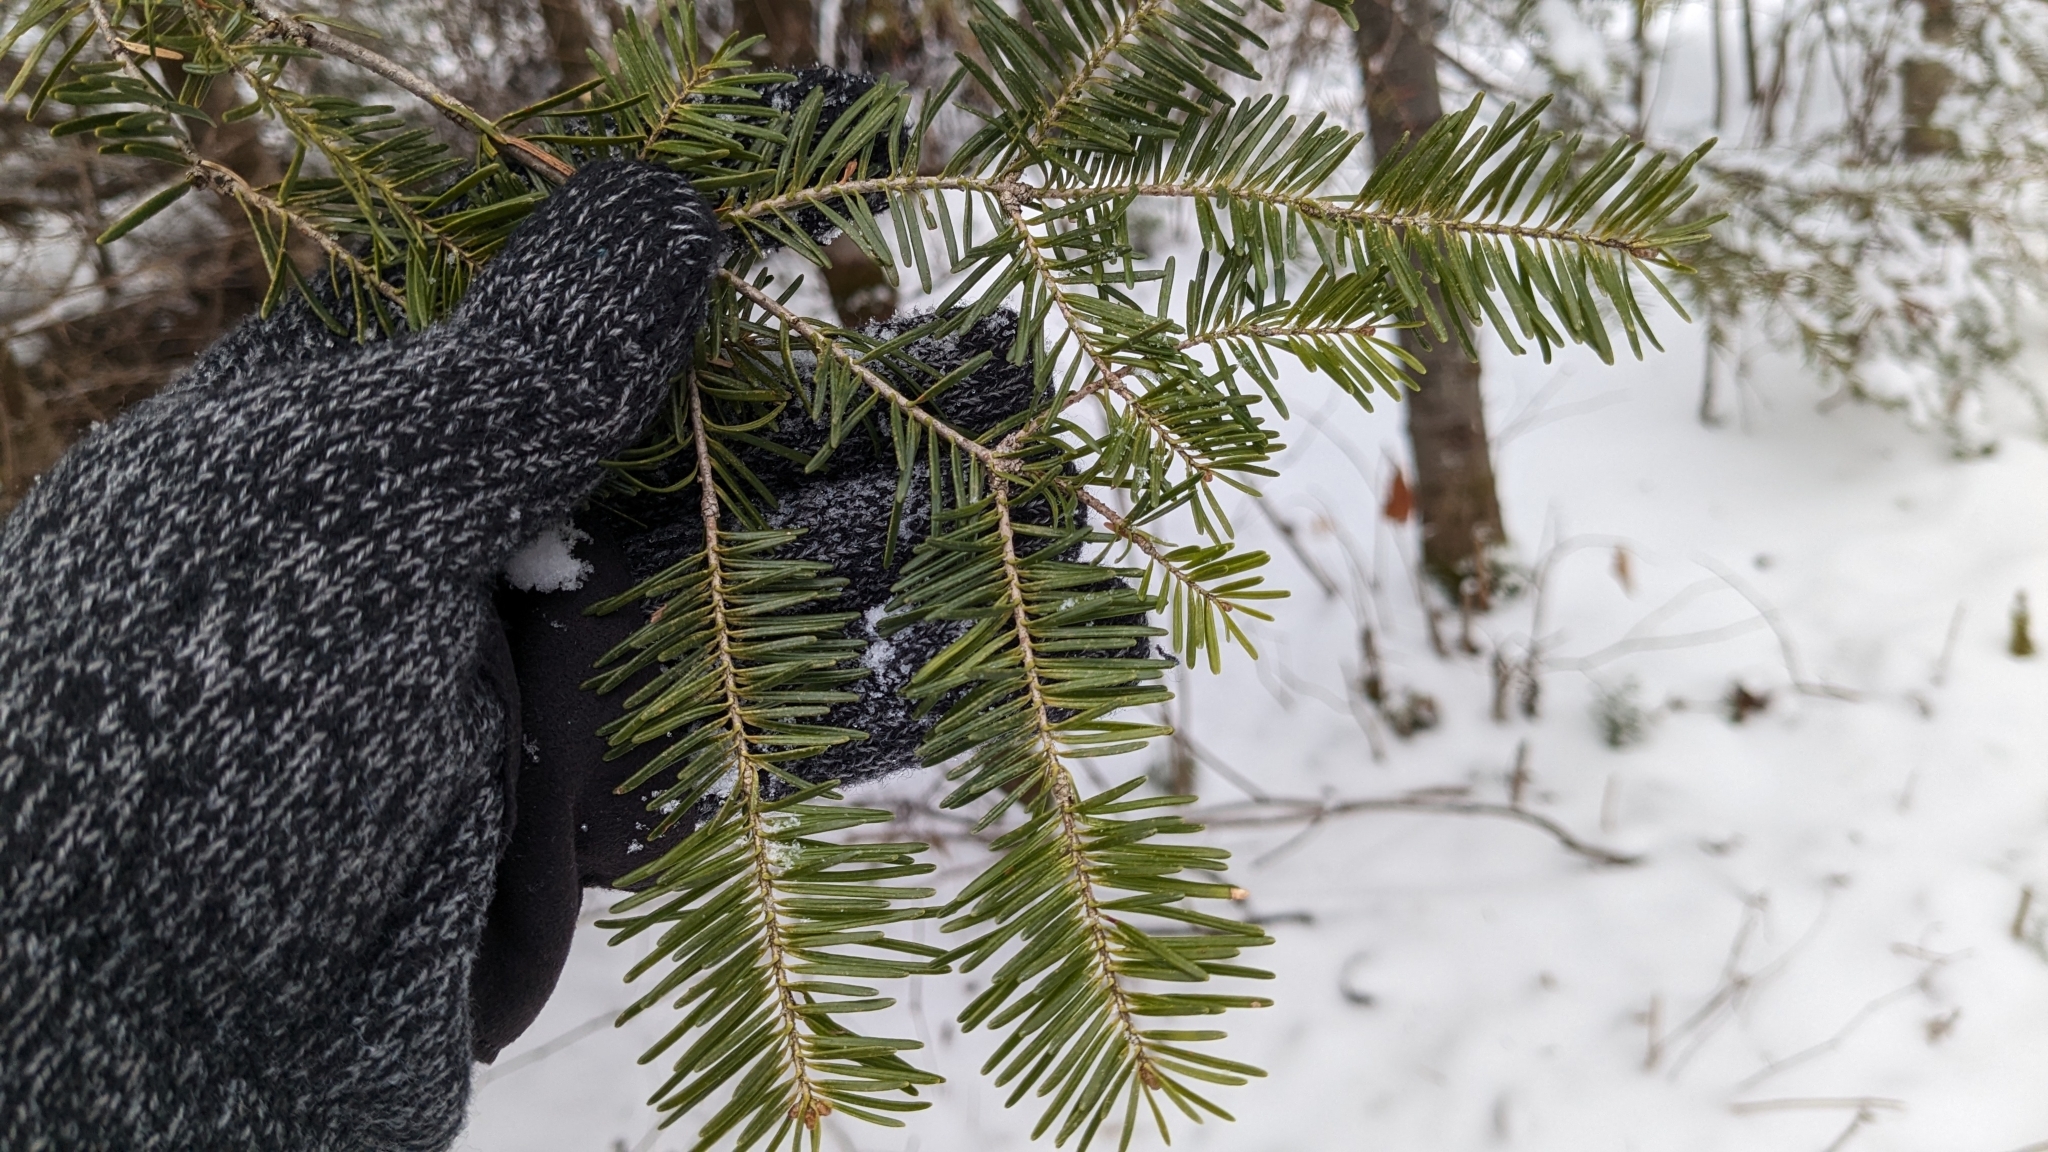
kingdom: Plantae
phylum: Tracheophyta
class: Pinopsida
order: Pinales
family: Pinaceae
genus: Abies
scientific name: Abies balsamea
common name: Balsam fir
